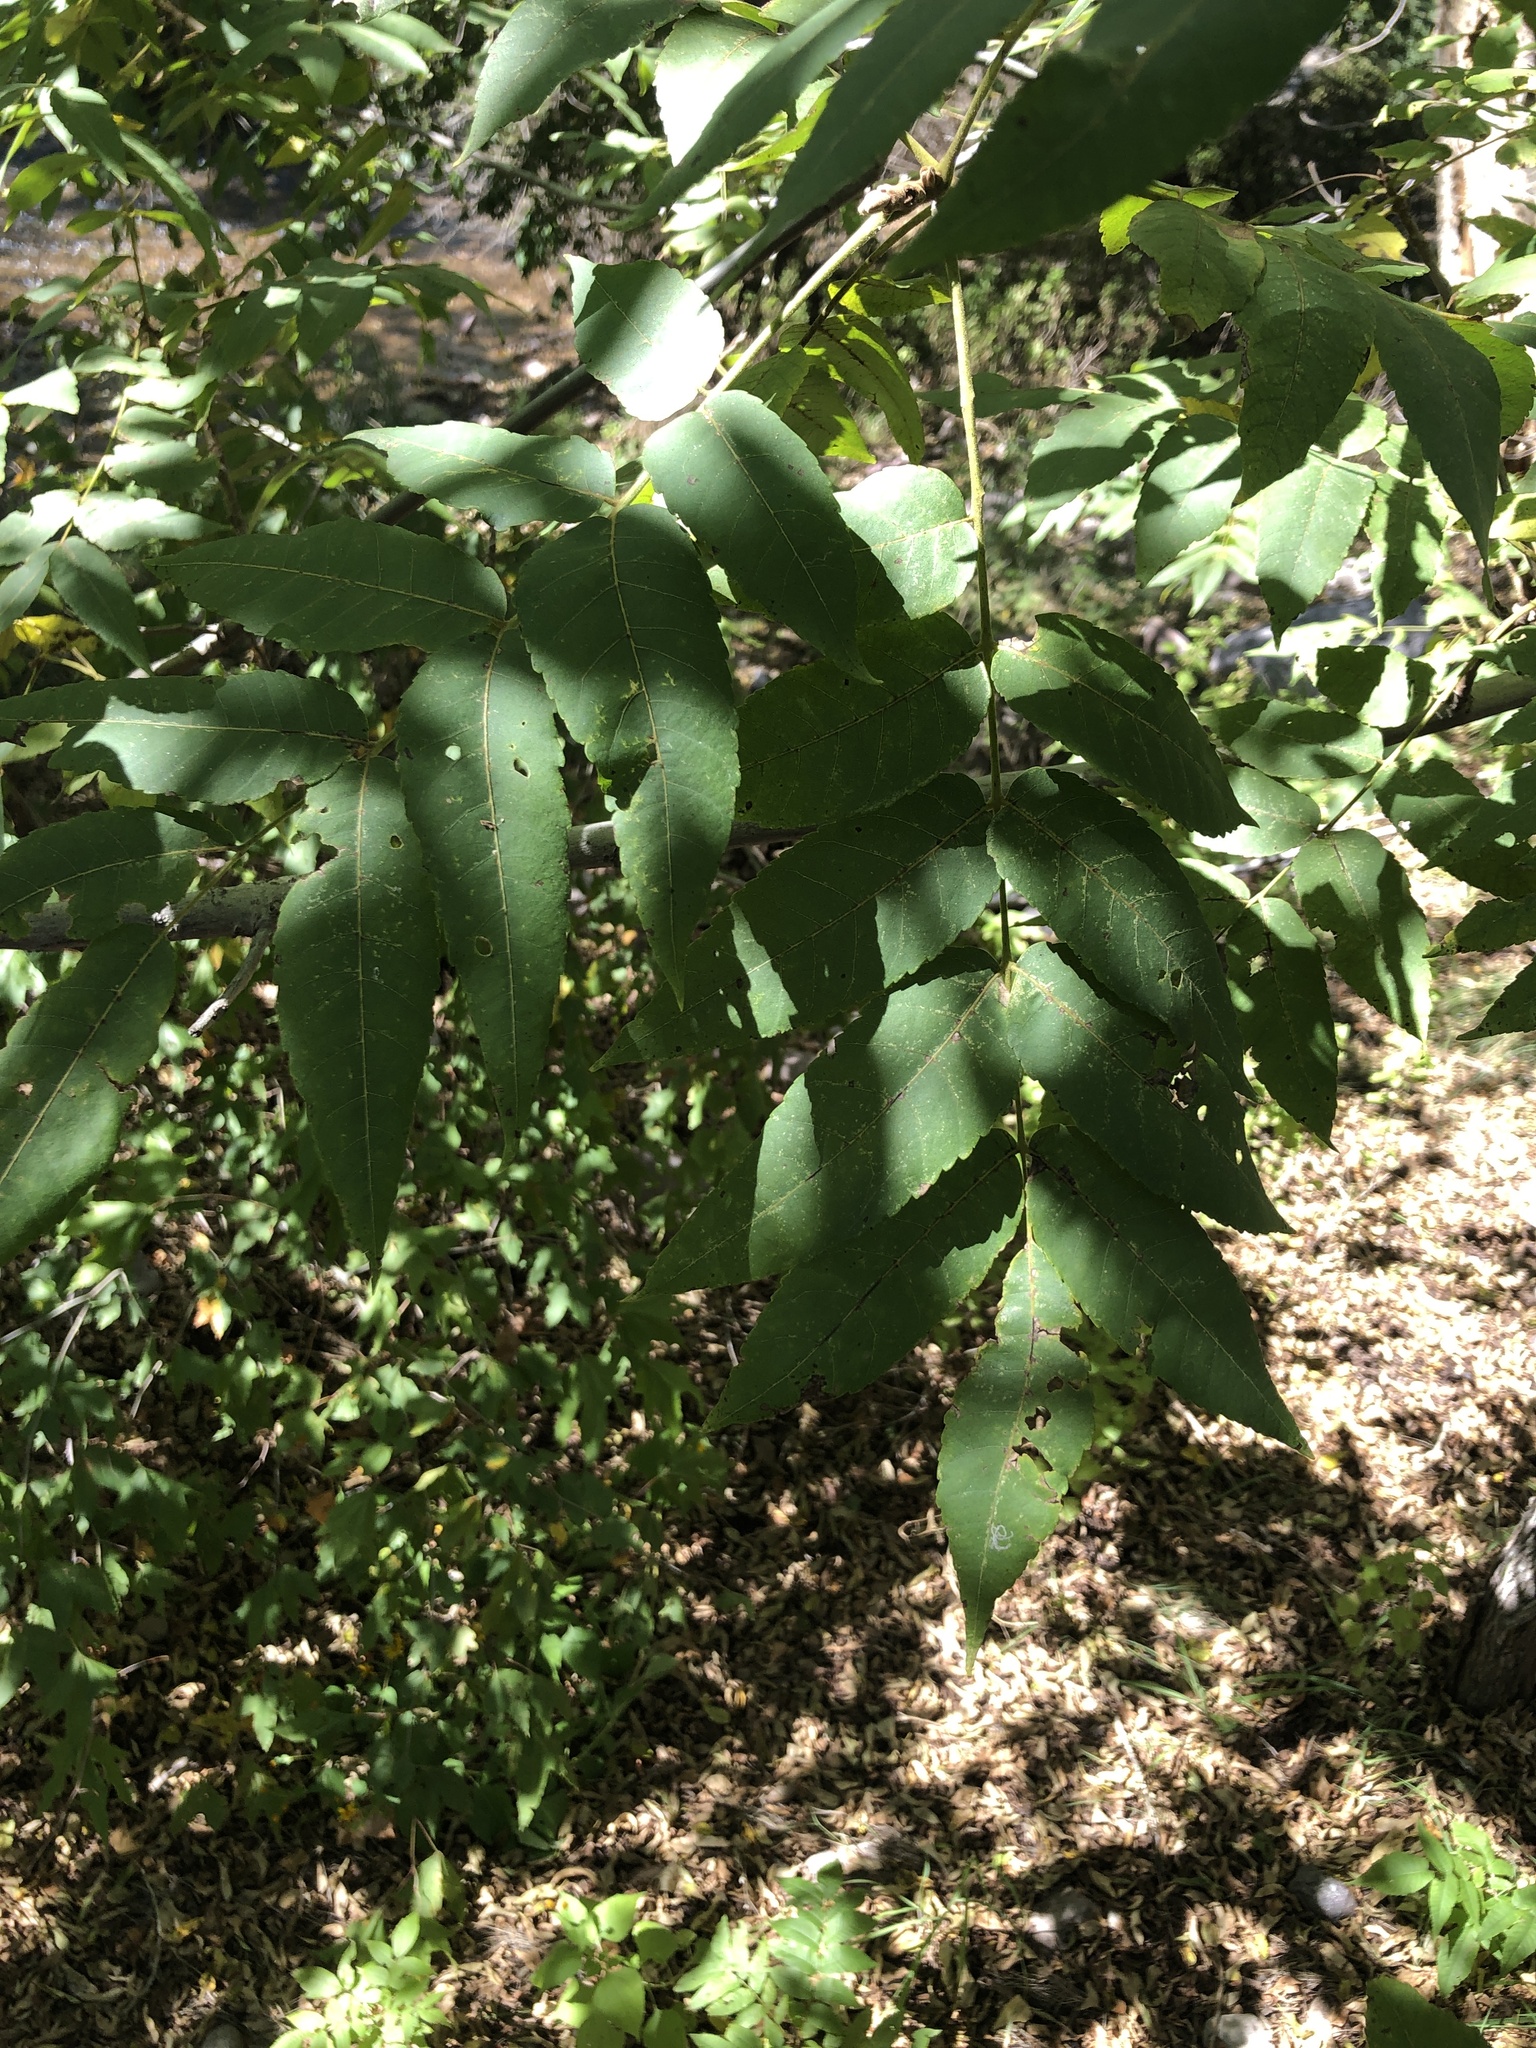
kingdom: Plantae
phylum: Tracheophyta
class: Magnoliopsida
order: Fagales
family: Juglandaceae
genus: Juglans
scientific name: Juglans major
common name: Arizona walnut
